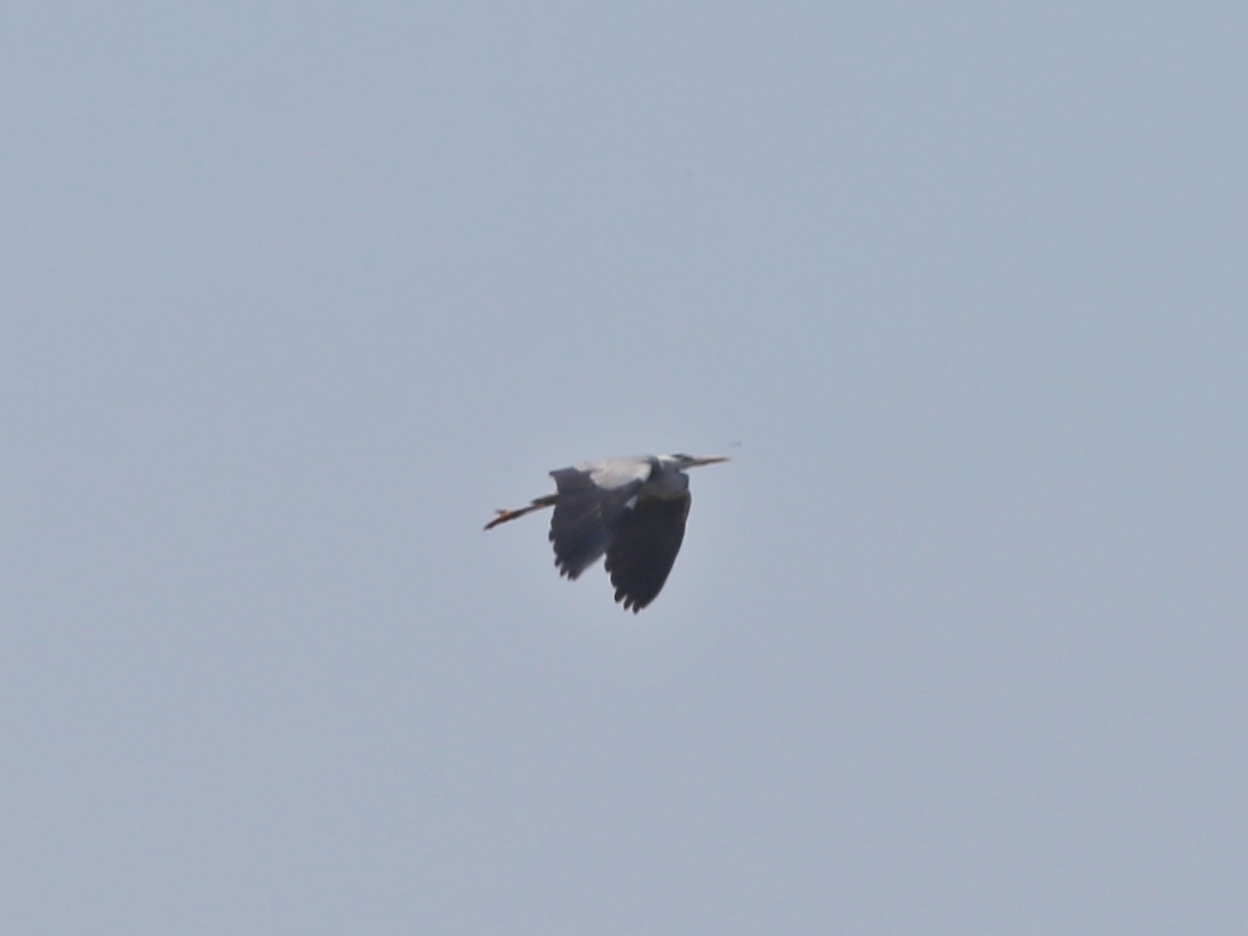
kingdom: Animalia
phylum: Chordata
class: Aves
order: Pelecaniformes
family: Ardeidae
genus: Ardea
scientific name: Ardea cinerea
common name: Grey heron
